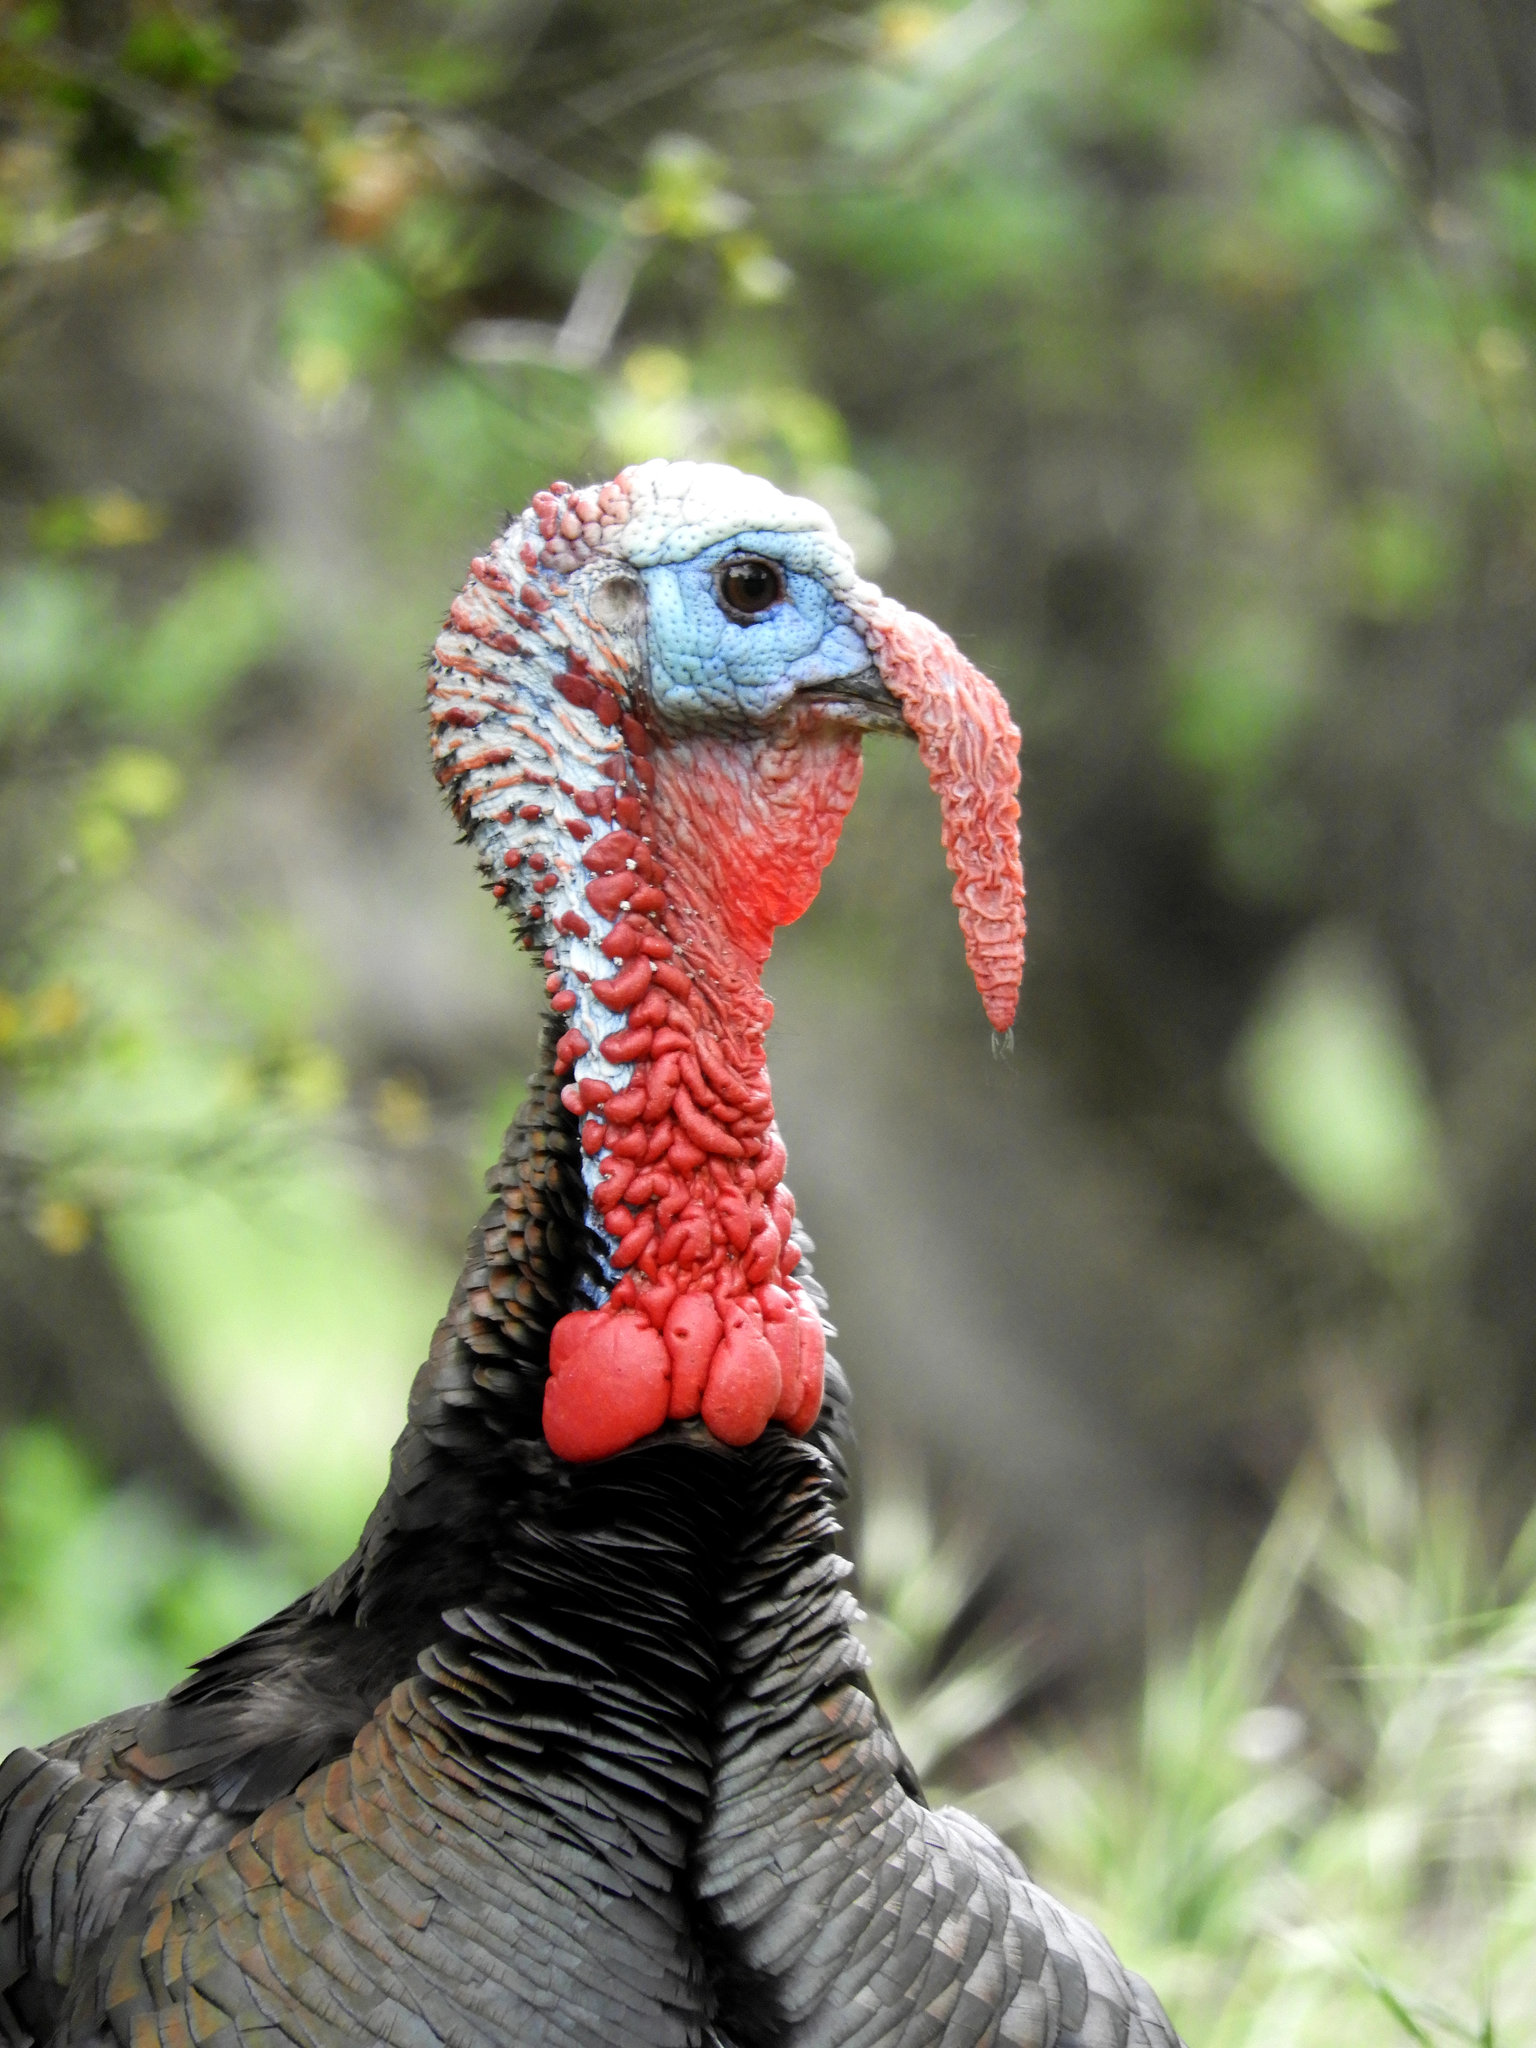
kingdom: Animalia
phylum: Chordata
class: Aves
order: Galliformes
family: Phasianidae
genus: Meleagris
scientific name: Meleagris gallopavo
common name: Wild turkey
